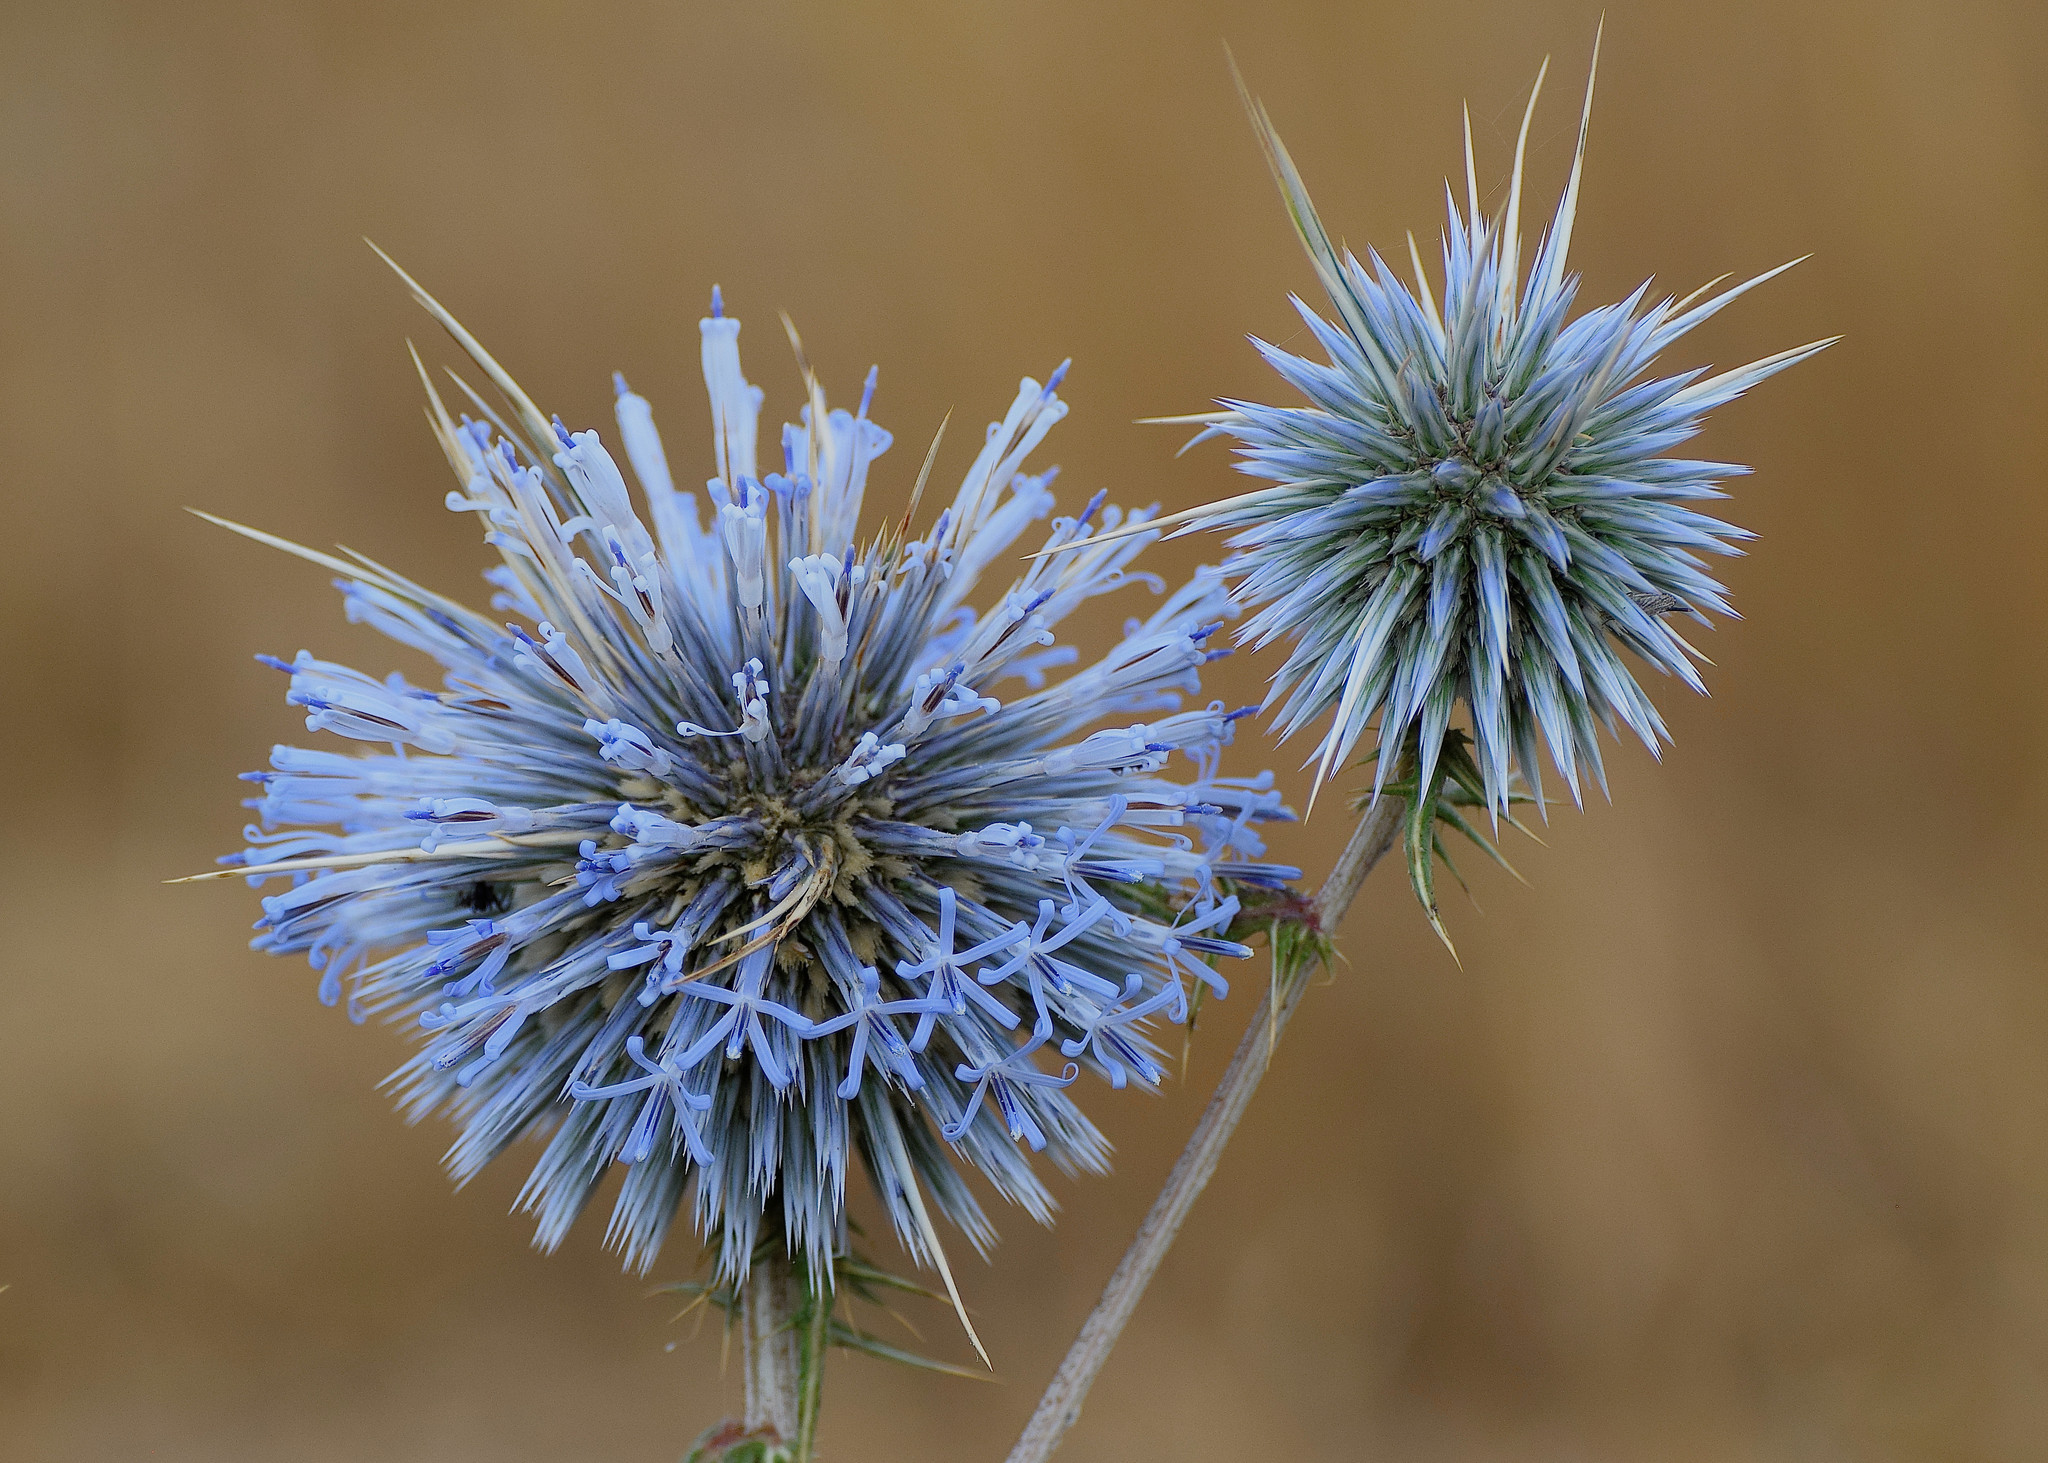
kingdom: Plantae
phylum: Tracheophyta
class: Magnoliopsida
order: Asterales
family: Asteraceae
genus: Echinops
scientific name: Echinops spinosissimus
